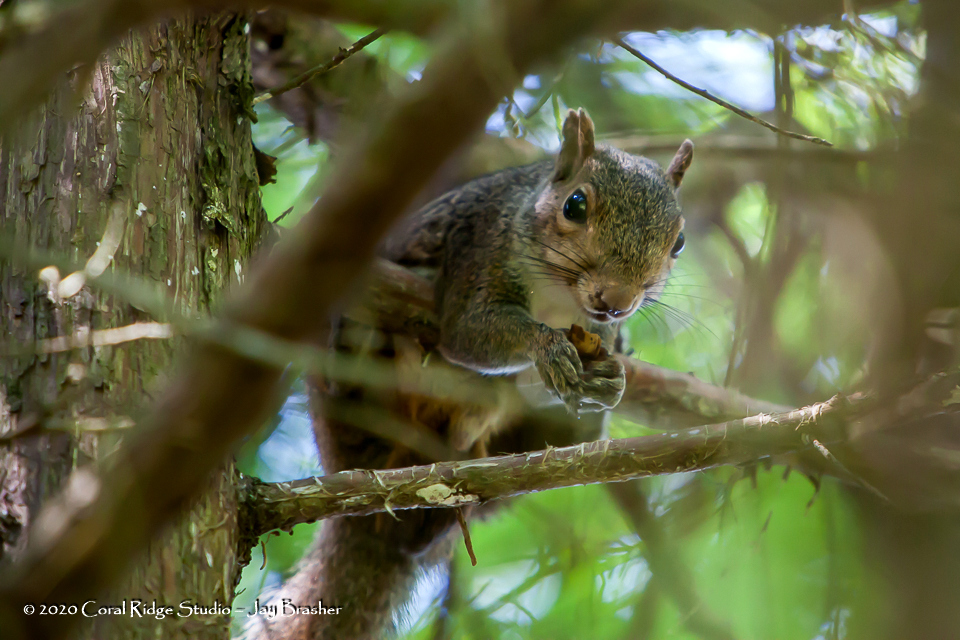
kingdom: Animalia
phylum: Chordata
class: Mammalia
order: Rodentia
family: Sciuridae
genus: Sciurus
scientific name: Sciurus carolinensis
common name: Eastern gray squirrel
